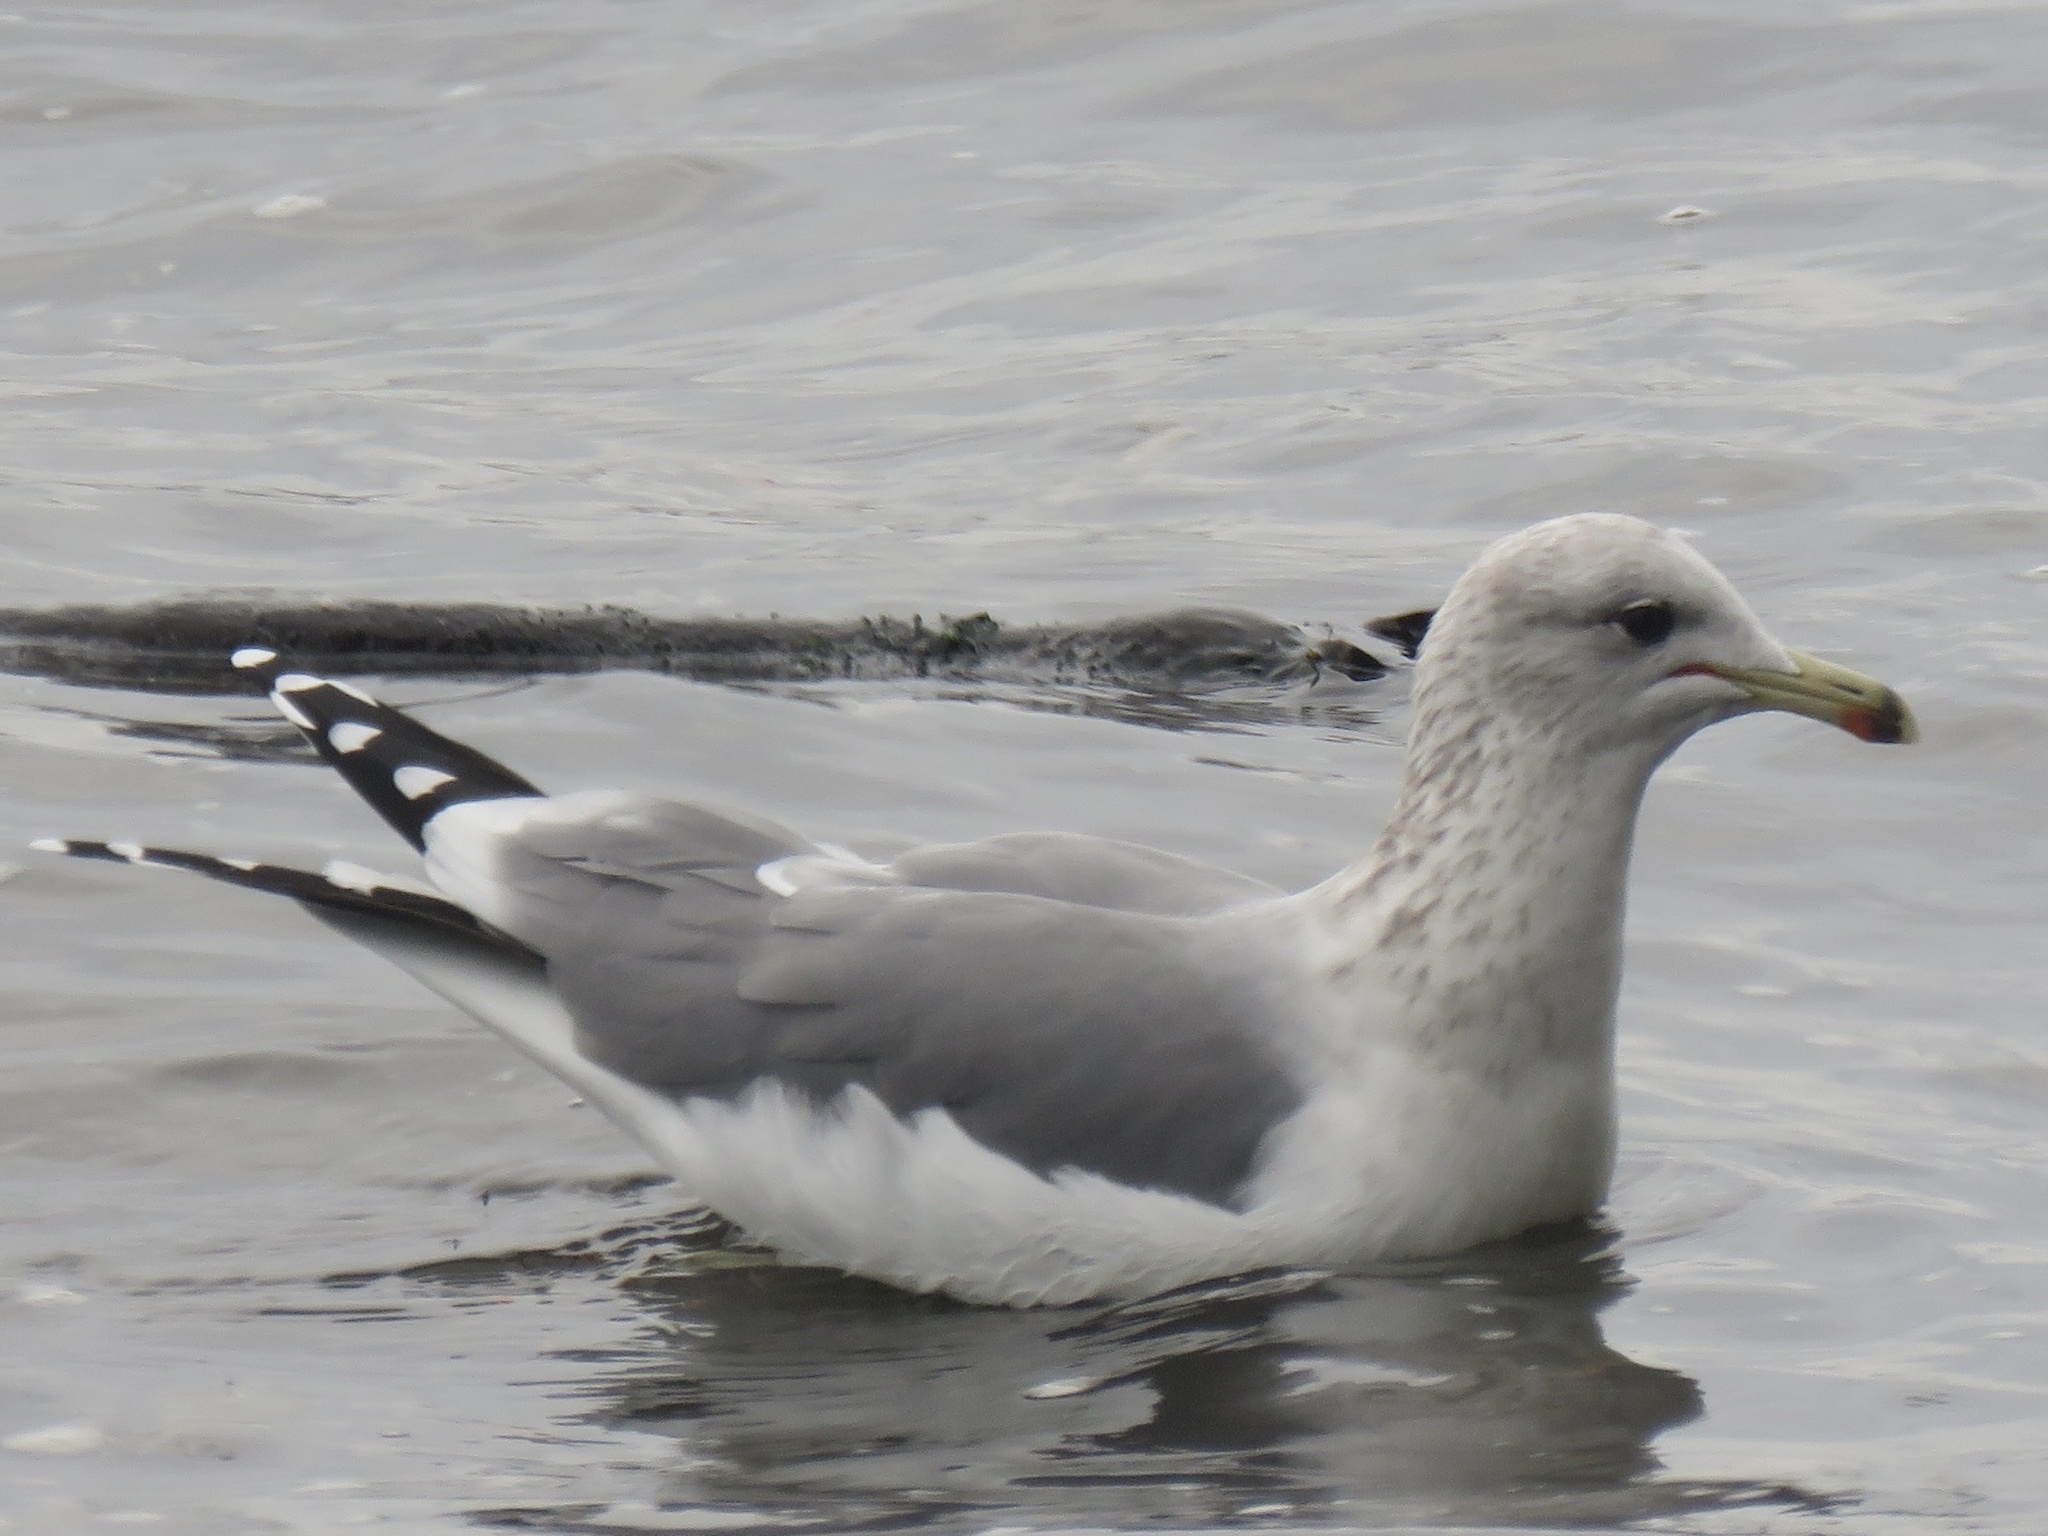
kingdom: Animalia
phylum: Chordata
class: Aves
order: Charadriiformes
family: Laridae
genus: Larus
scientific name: Larus californicus
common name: California gull
